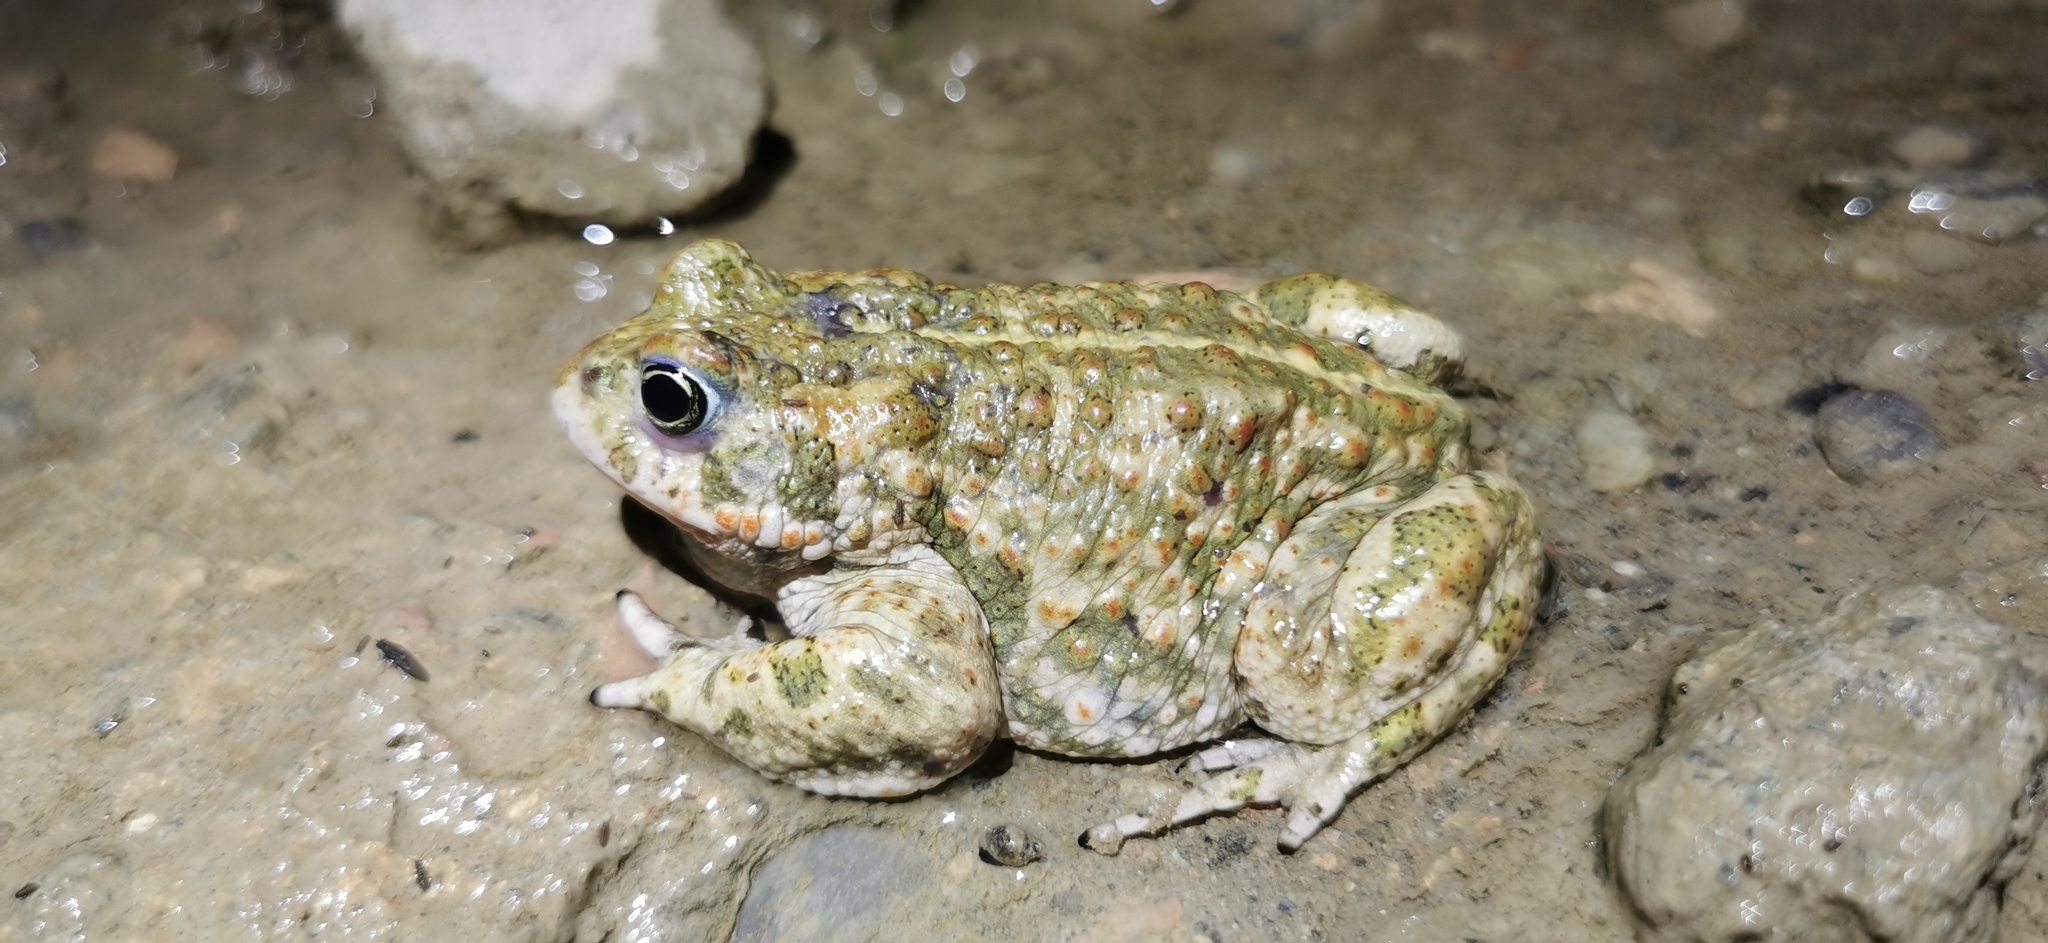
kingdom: Animalia
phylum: Chordata
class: Amphibia
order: Anura
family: Bufonidae
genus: Epidalea
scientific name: Epidalea calamita
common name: Natterjack toad
